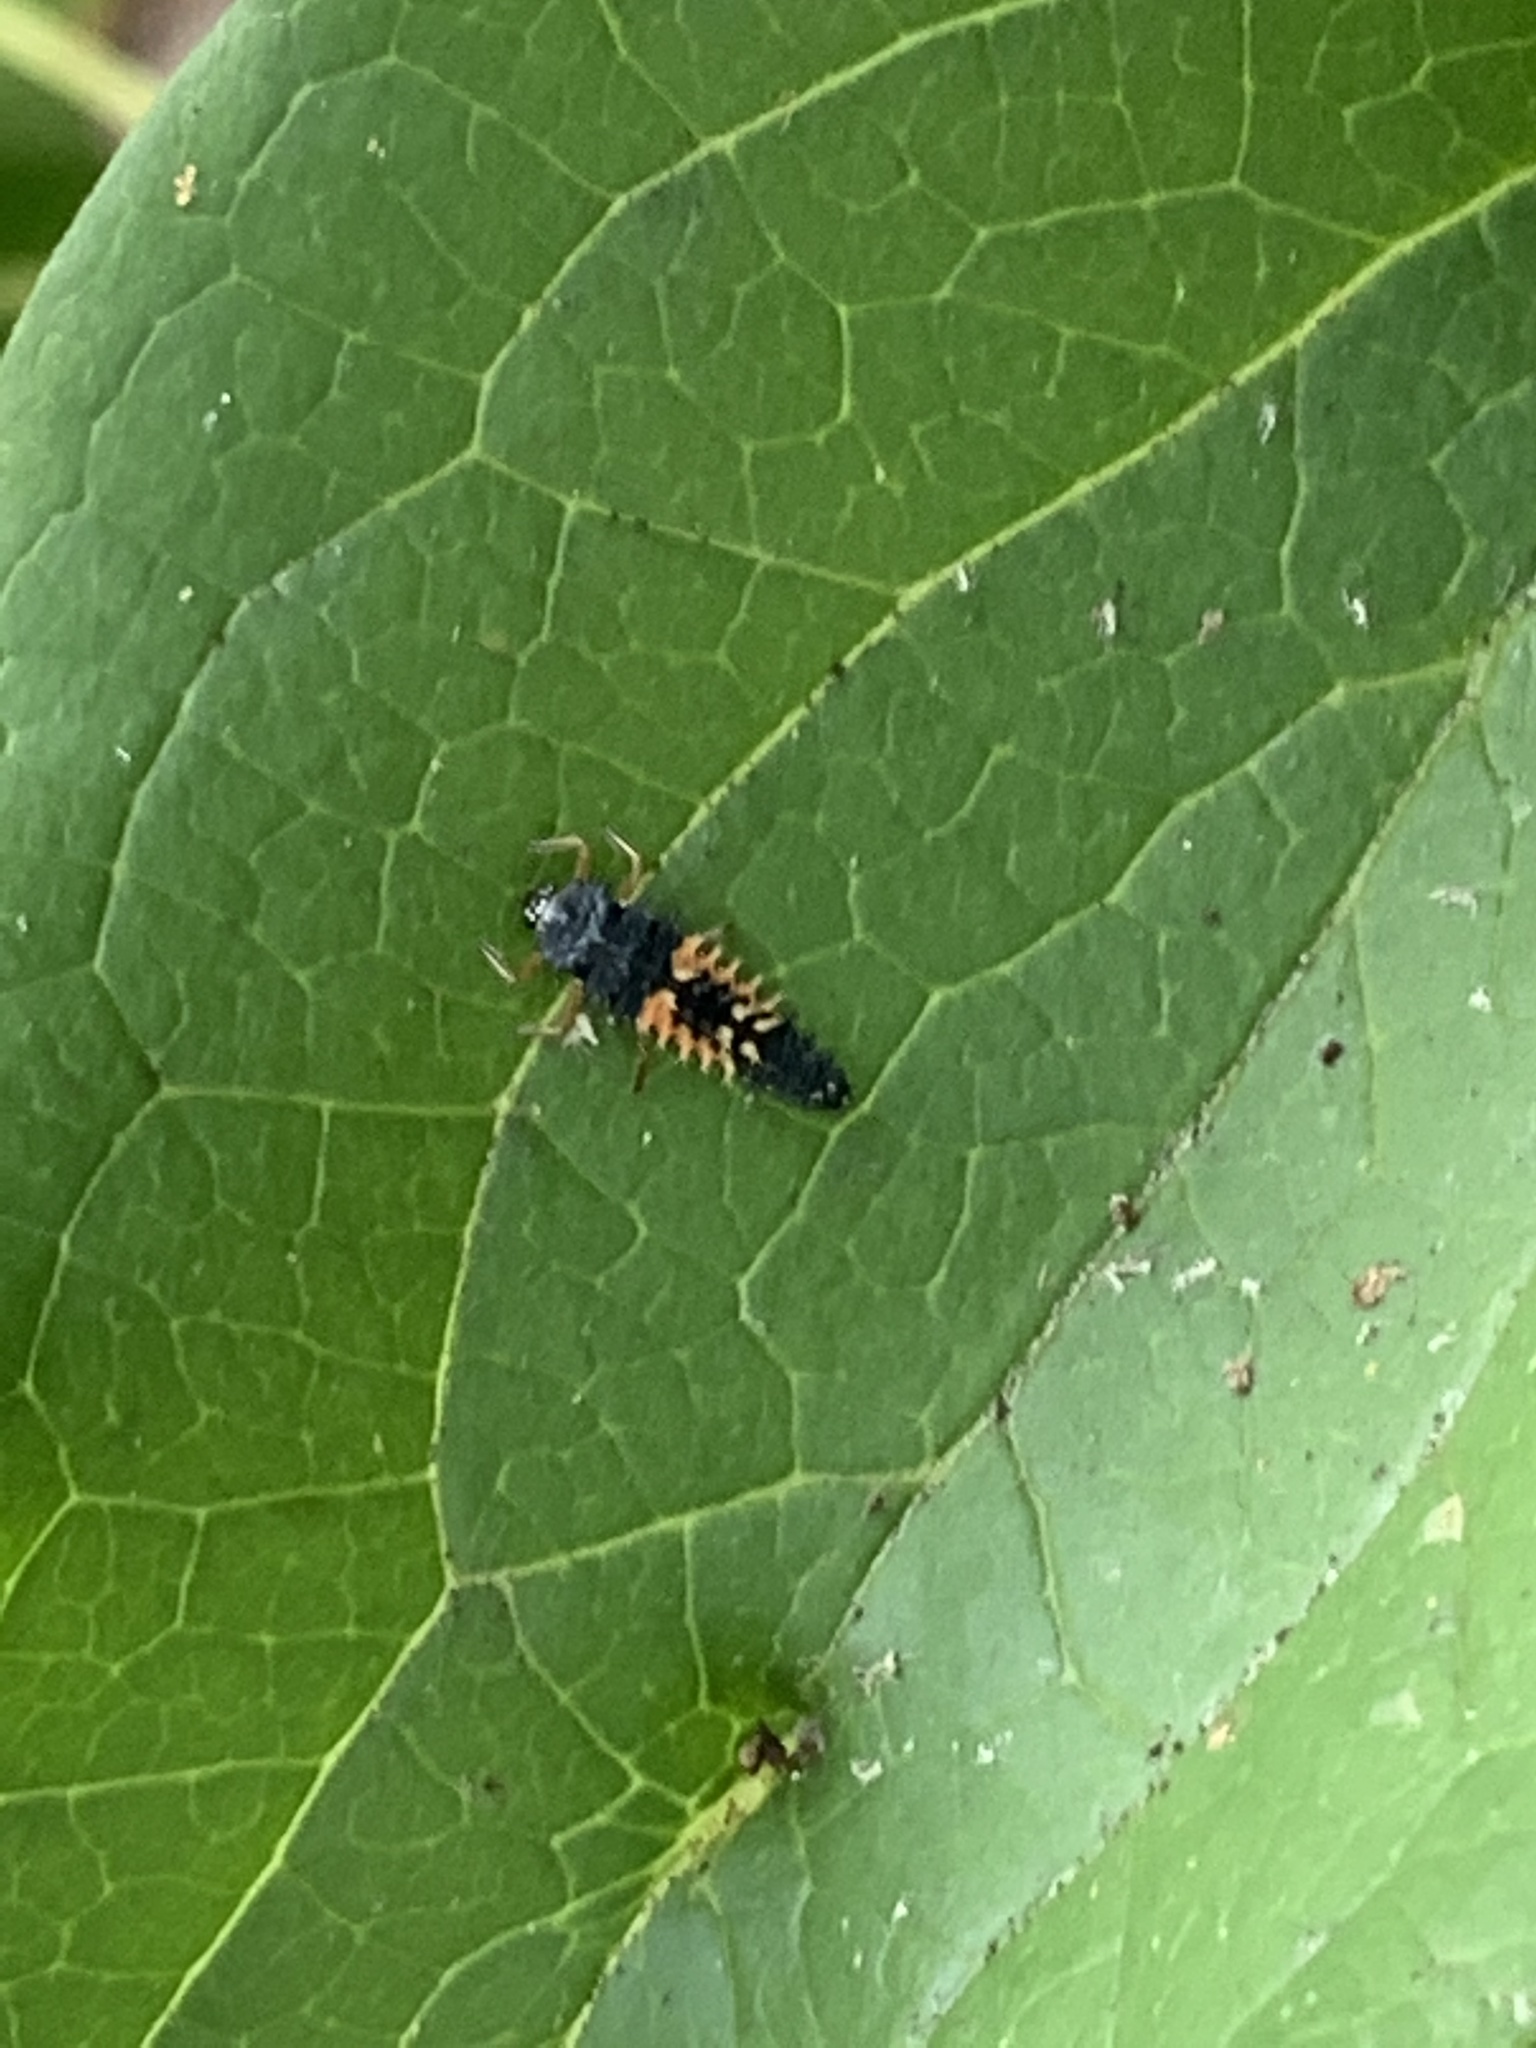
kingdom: Animalia
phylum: Arthropoda
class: Insecta
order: Coleoptera
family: Coccinellidae
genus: Harmonia
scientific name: Harmonia axyridis
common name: Harlequin ladybird
